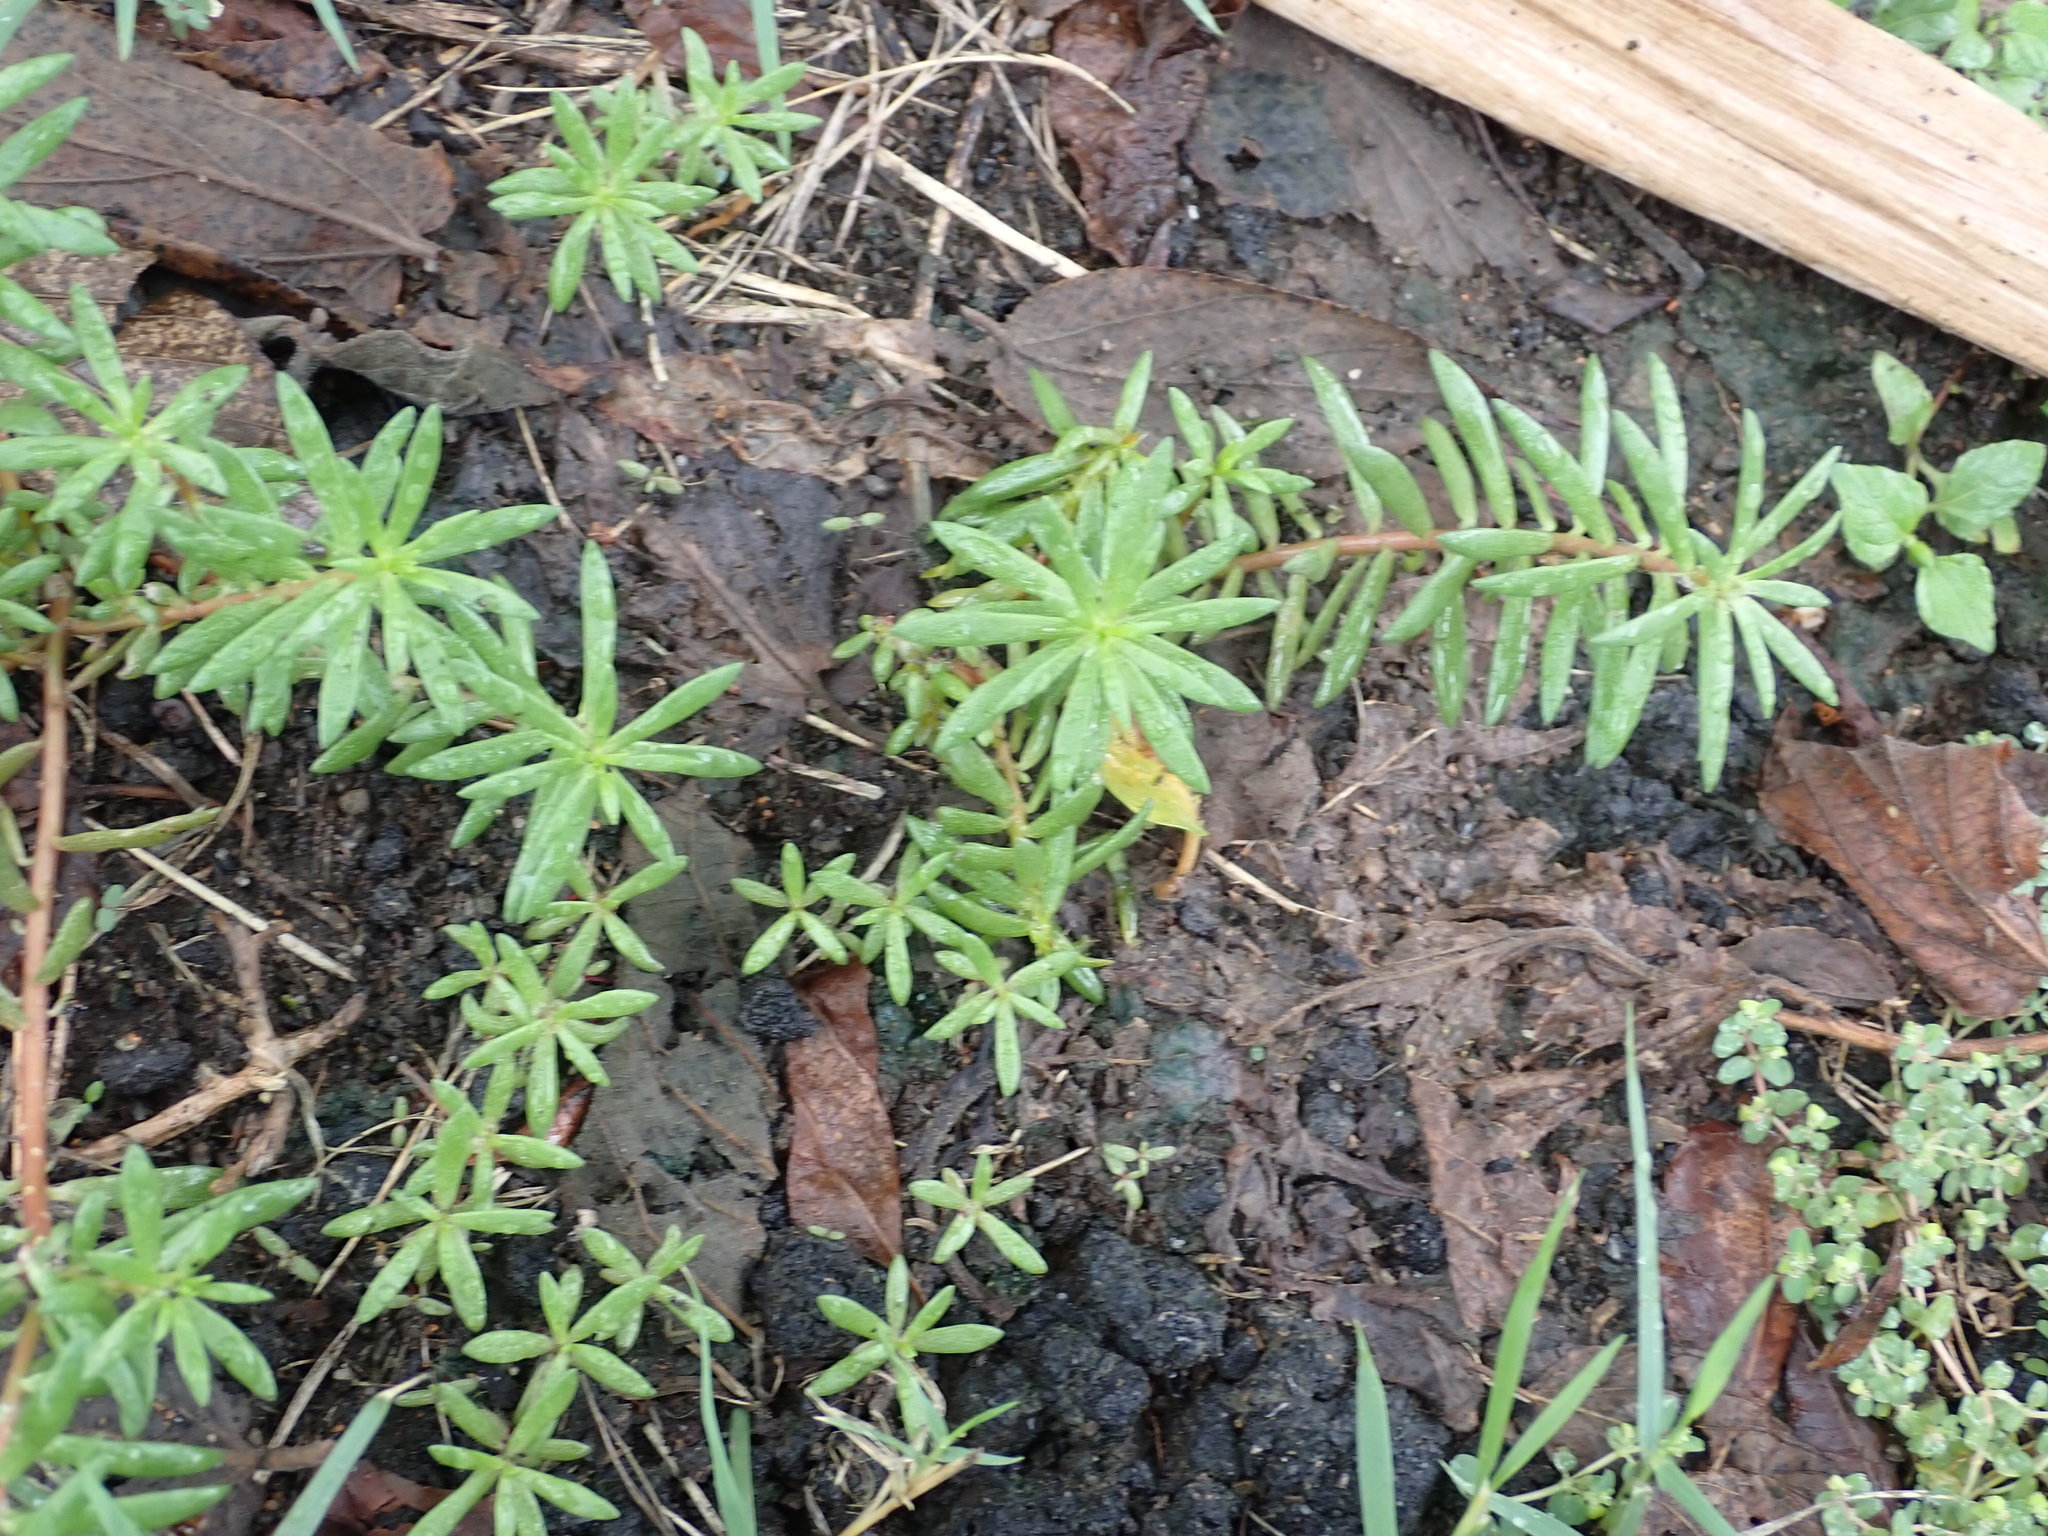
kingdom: Plantae
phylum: Tracheophyta
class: Magnoliopsida
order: Caryophyllales
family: Portulacaceae
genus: Portulaca
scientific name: Portulaca pilosa
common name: Kiss me quick
